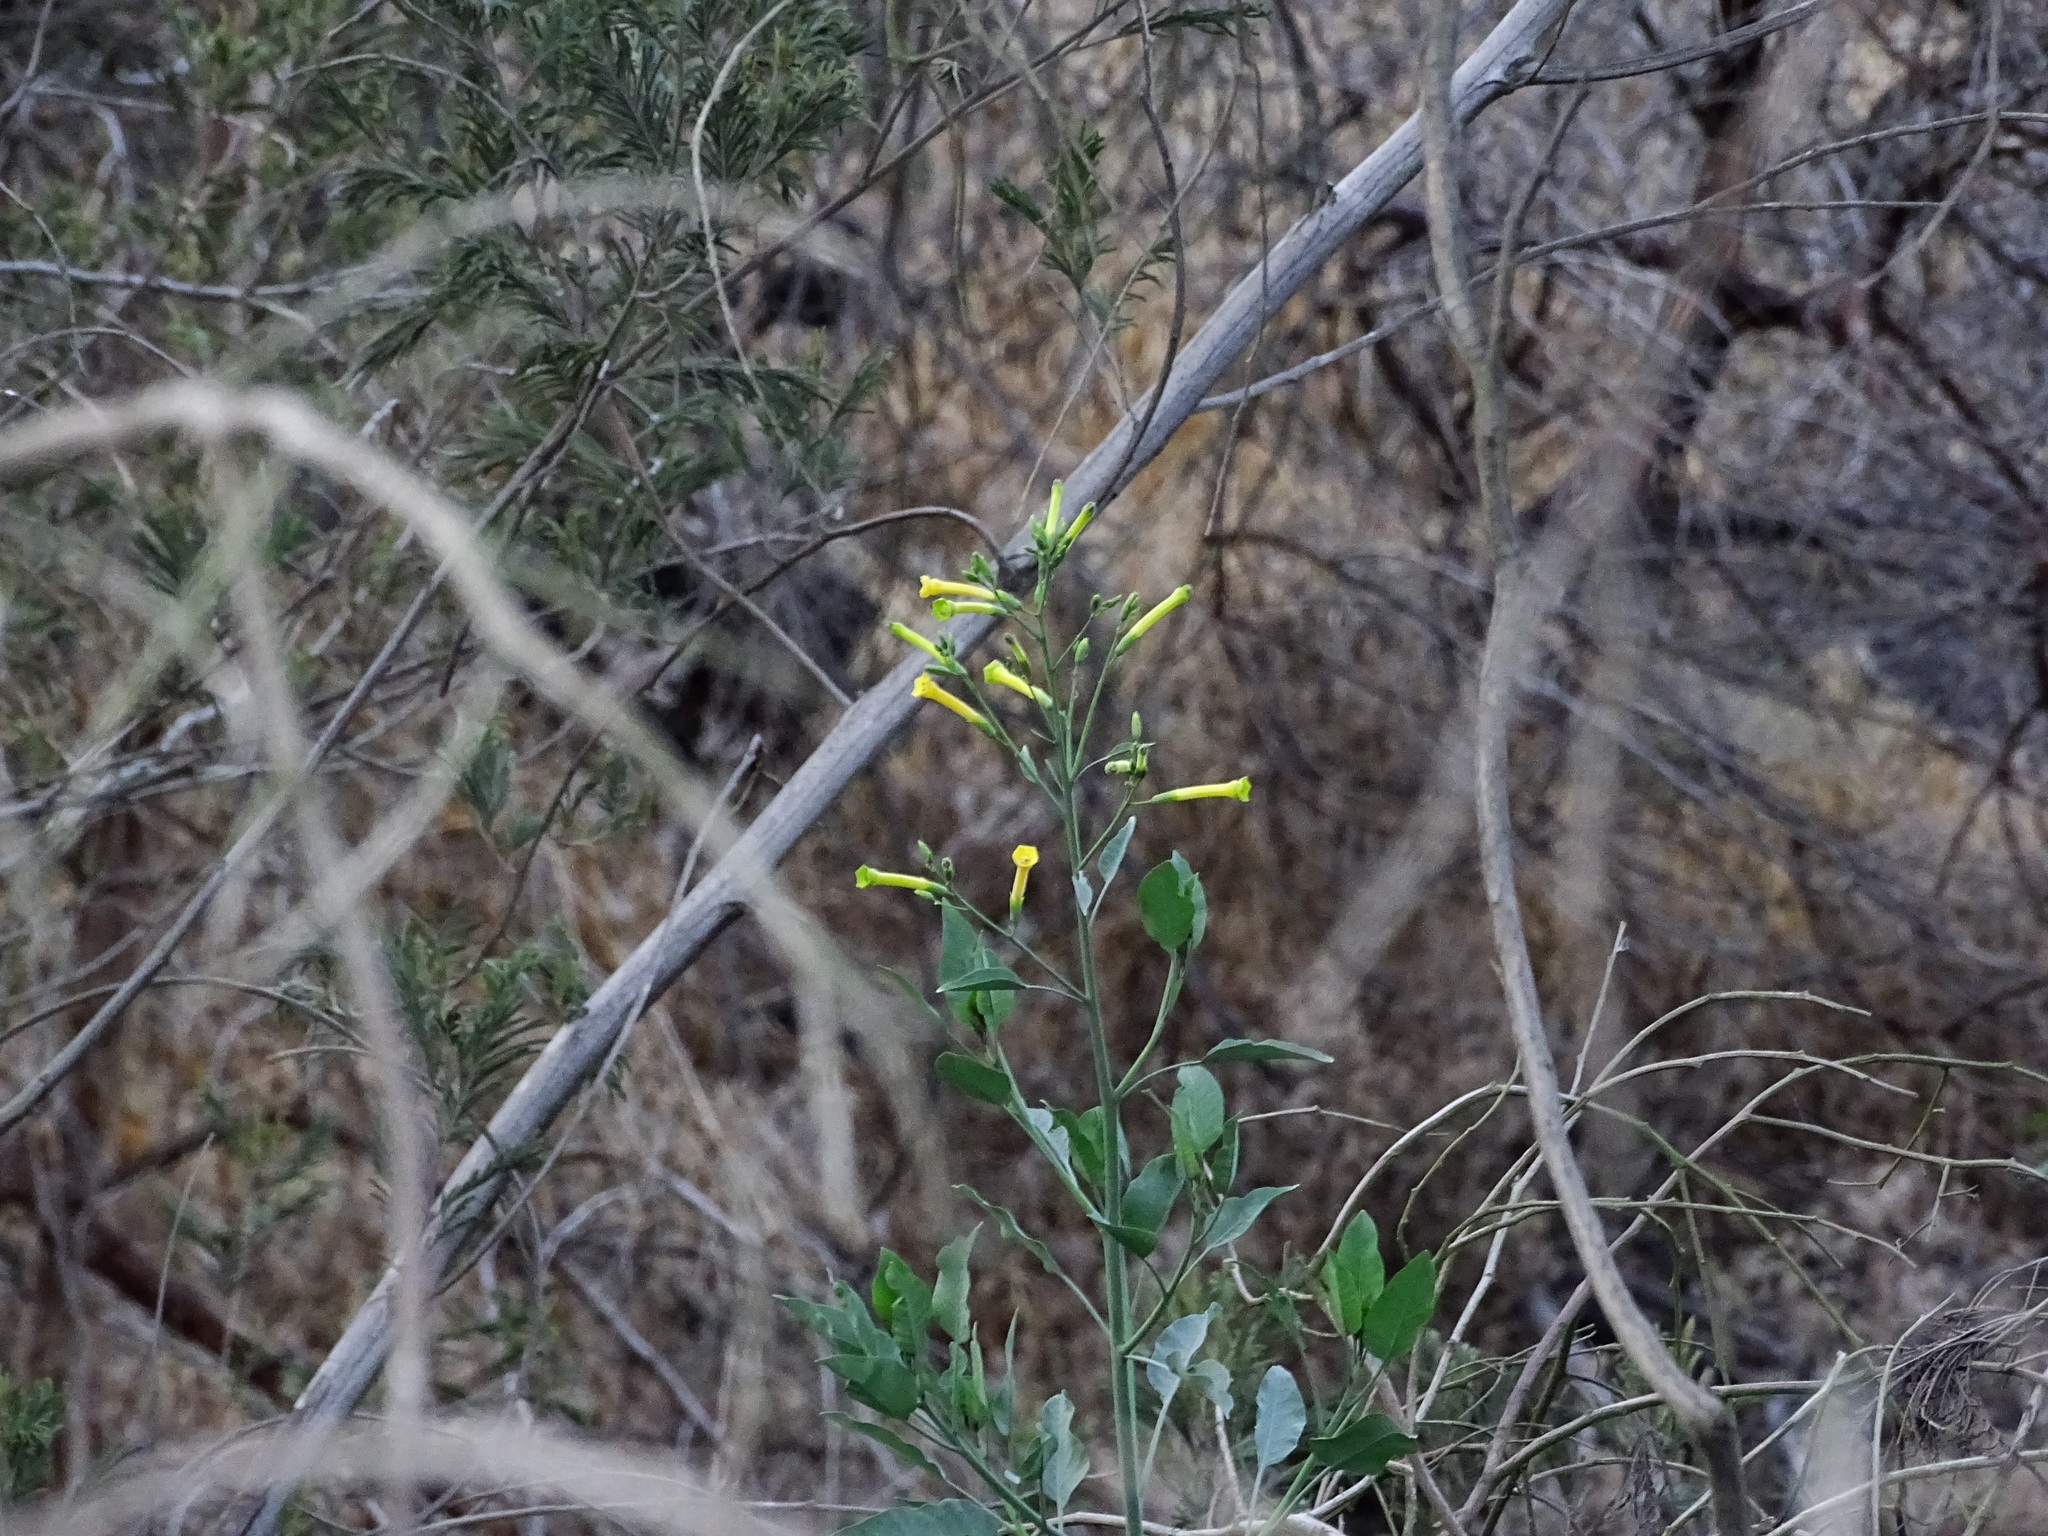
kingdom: Plantae
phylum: Tracheophyta
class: Magnoliopsida
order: Solanales
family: Solanaceae
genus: Nicotiana
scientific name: Nicotiana glauca
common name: Tree tobacco
